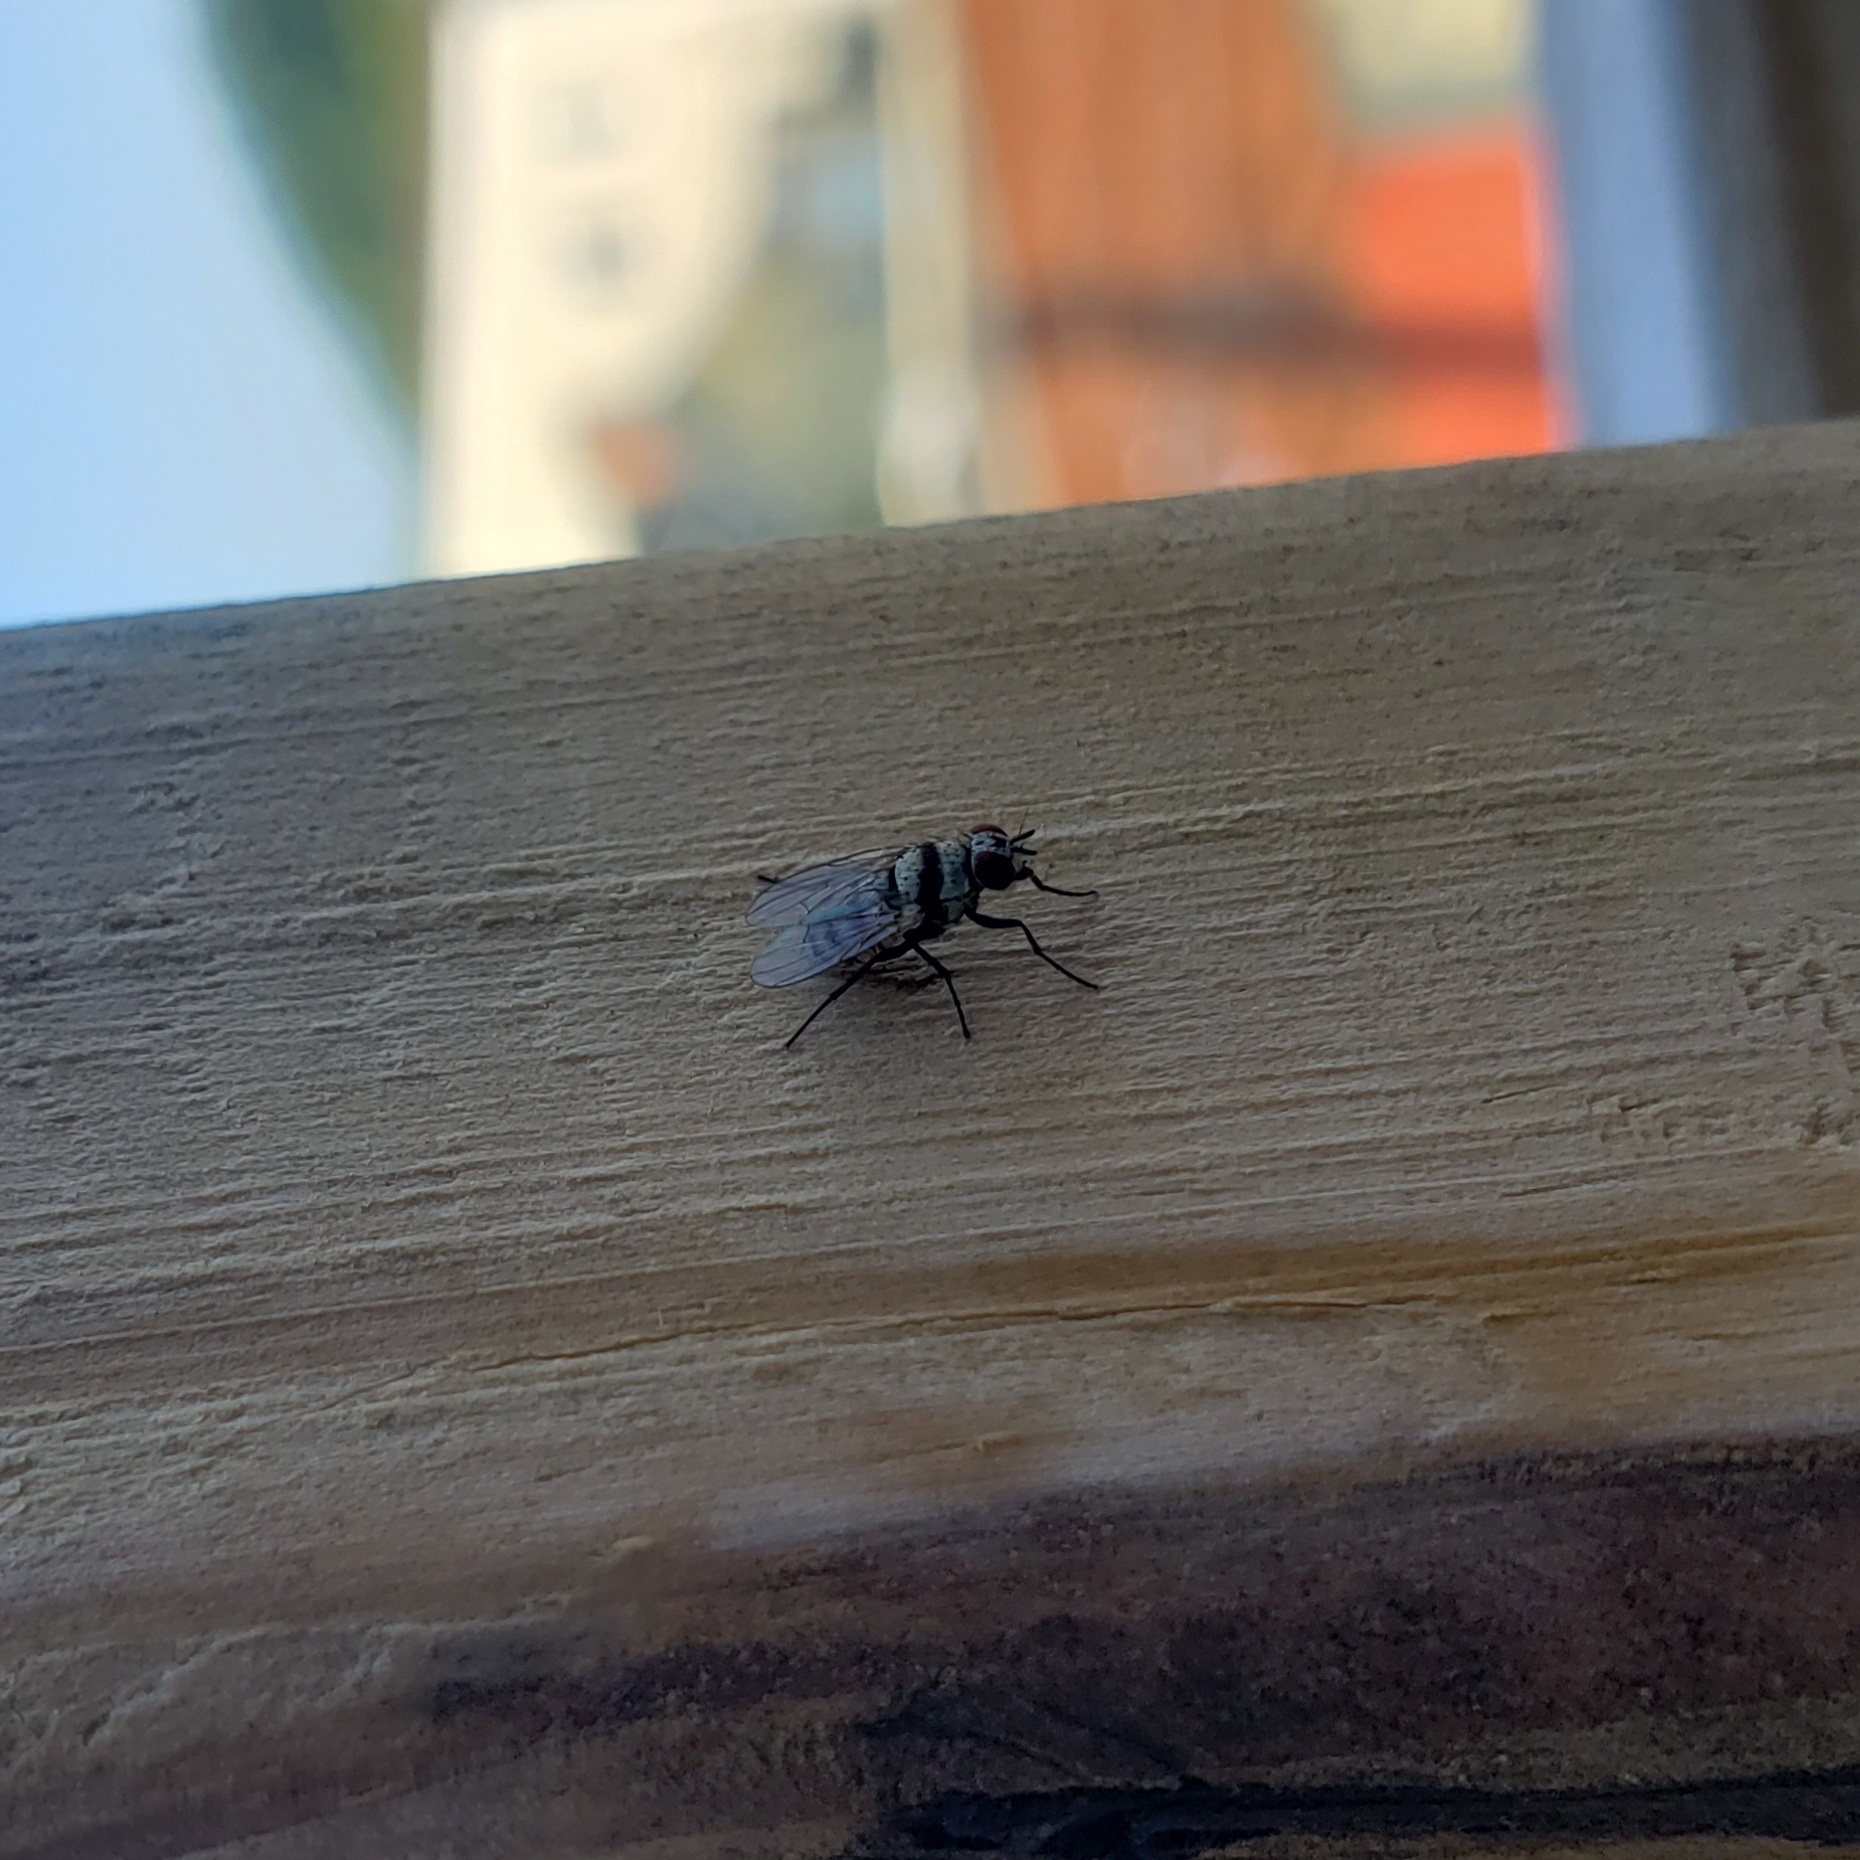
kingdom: Animalia
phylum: Arthropoda
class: Insecta
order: Diptera
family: Anthomyiidae
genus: Anthomyia
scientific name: Anthomyia illocata
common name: Fly
